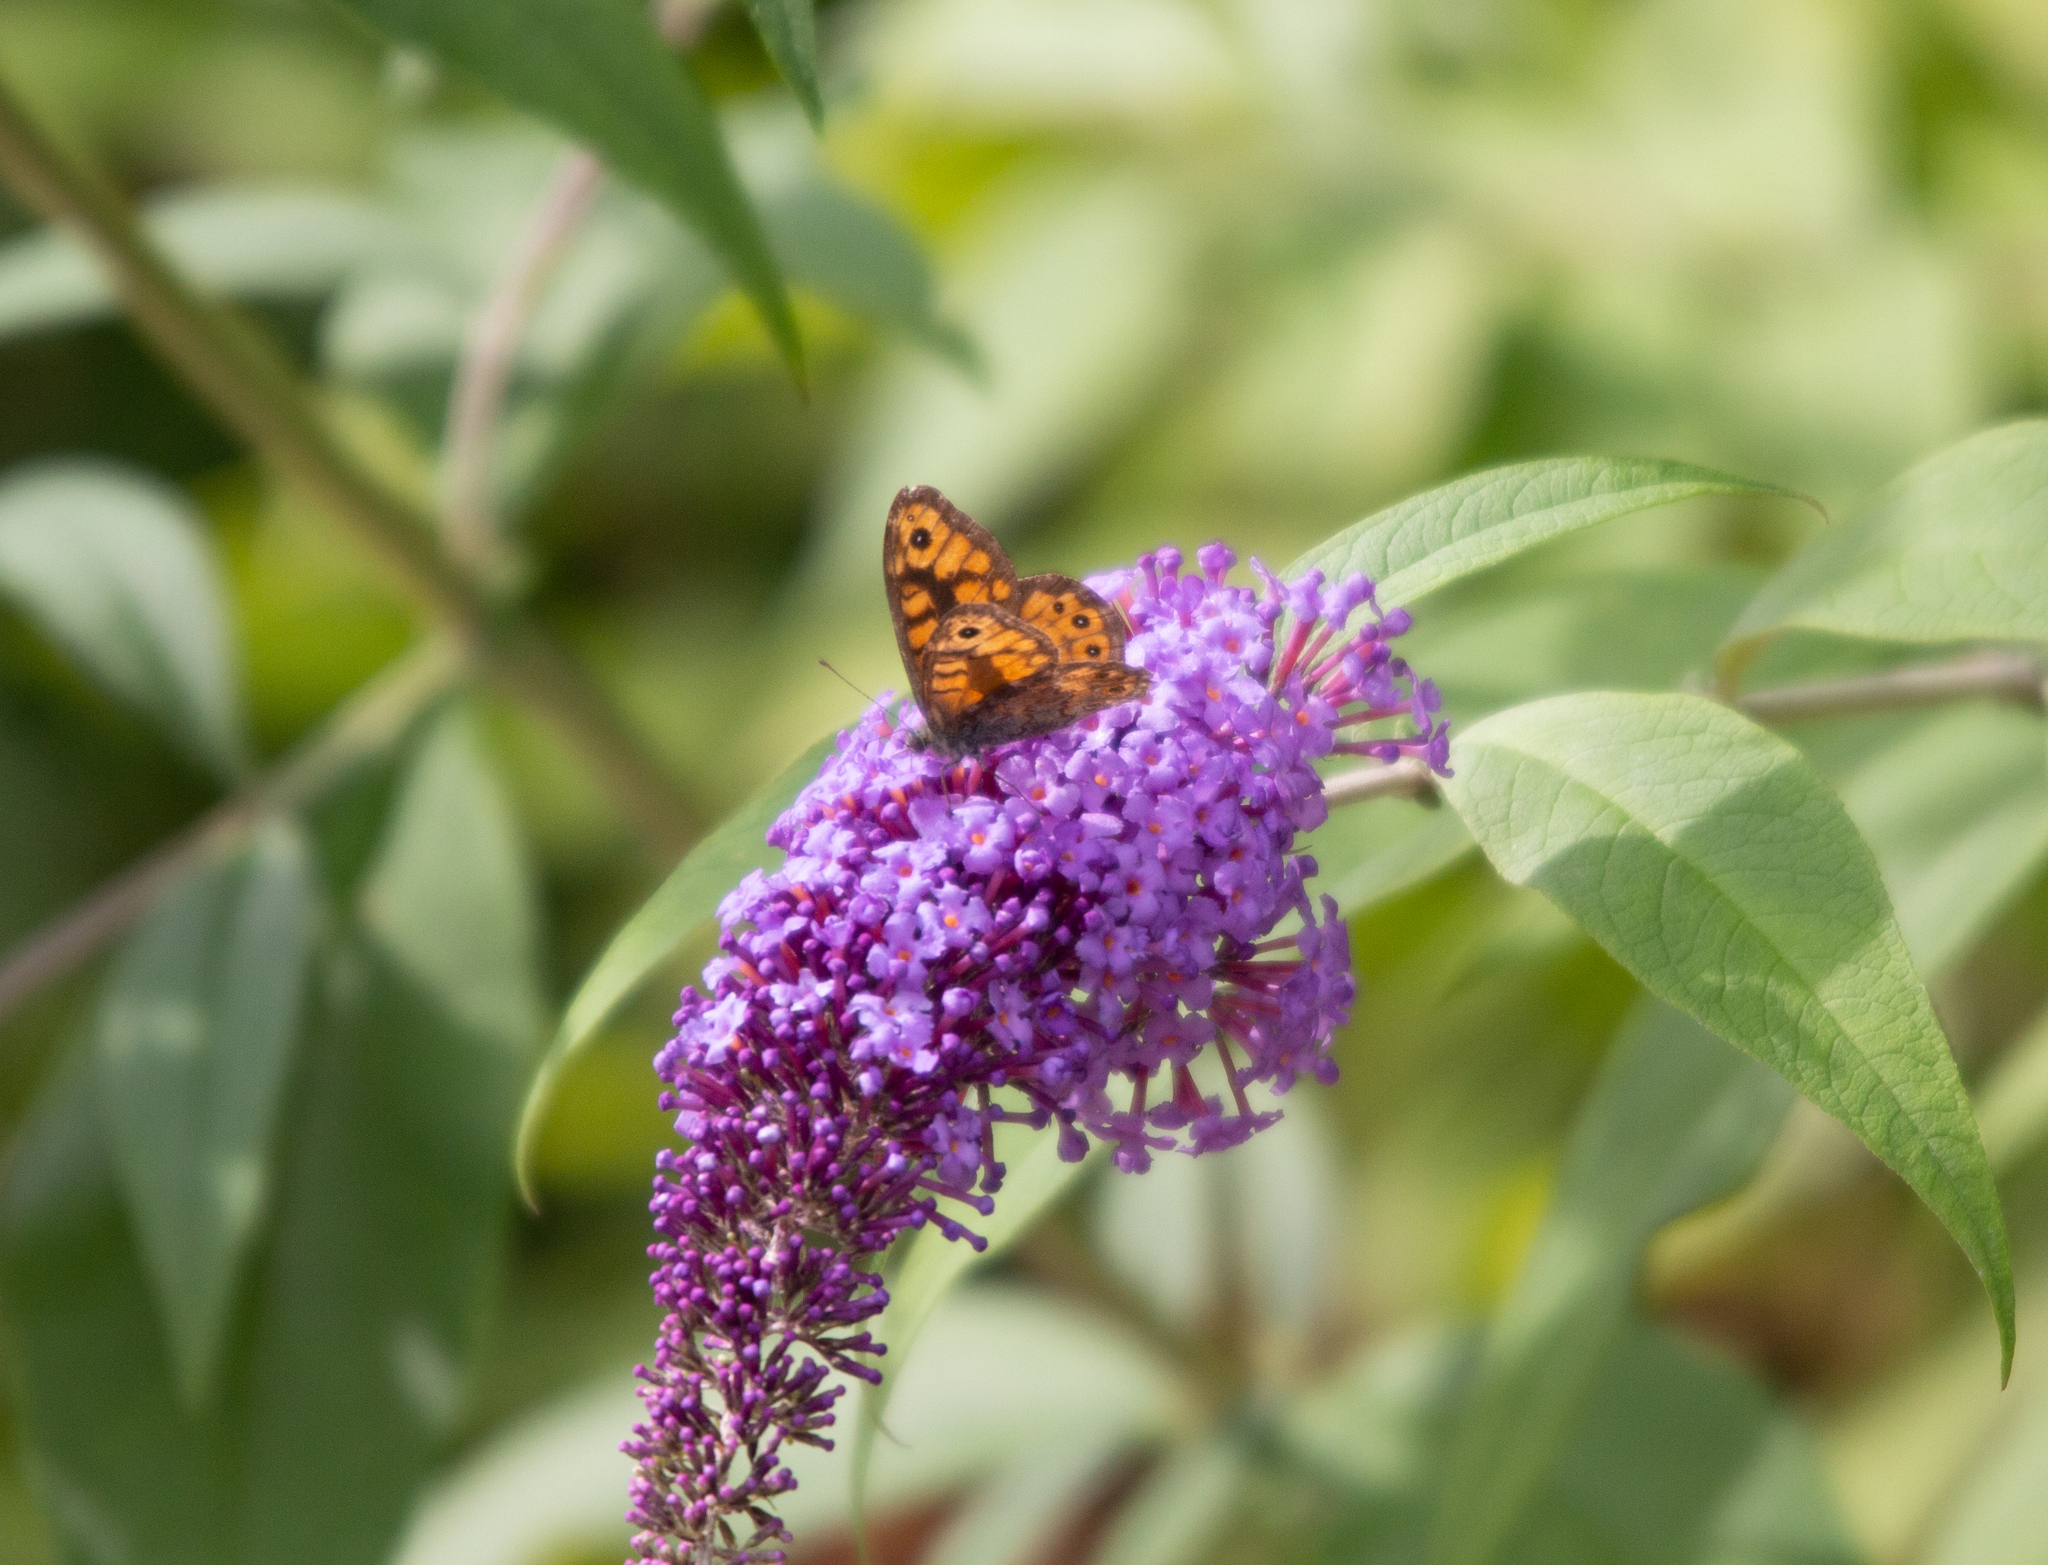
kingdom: Animalia
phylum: Arthropoda
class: Insecta
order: Lepidoptera
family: Nymphalidae
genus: Pararge
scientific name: Pararge Lasiommata megera
